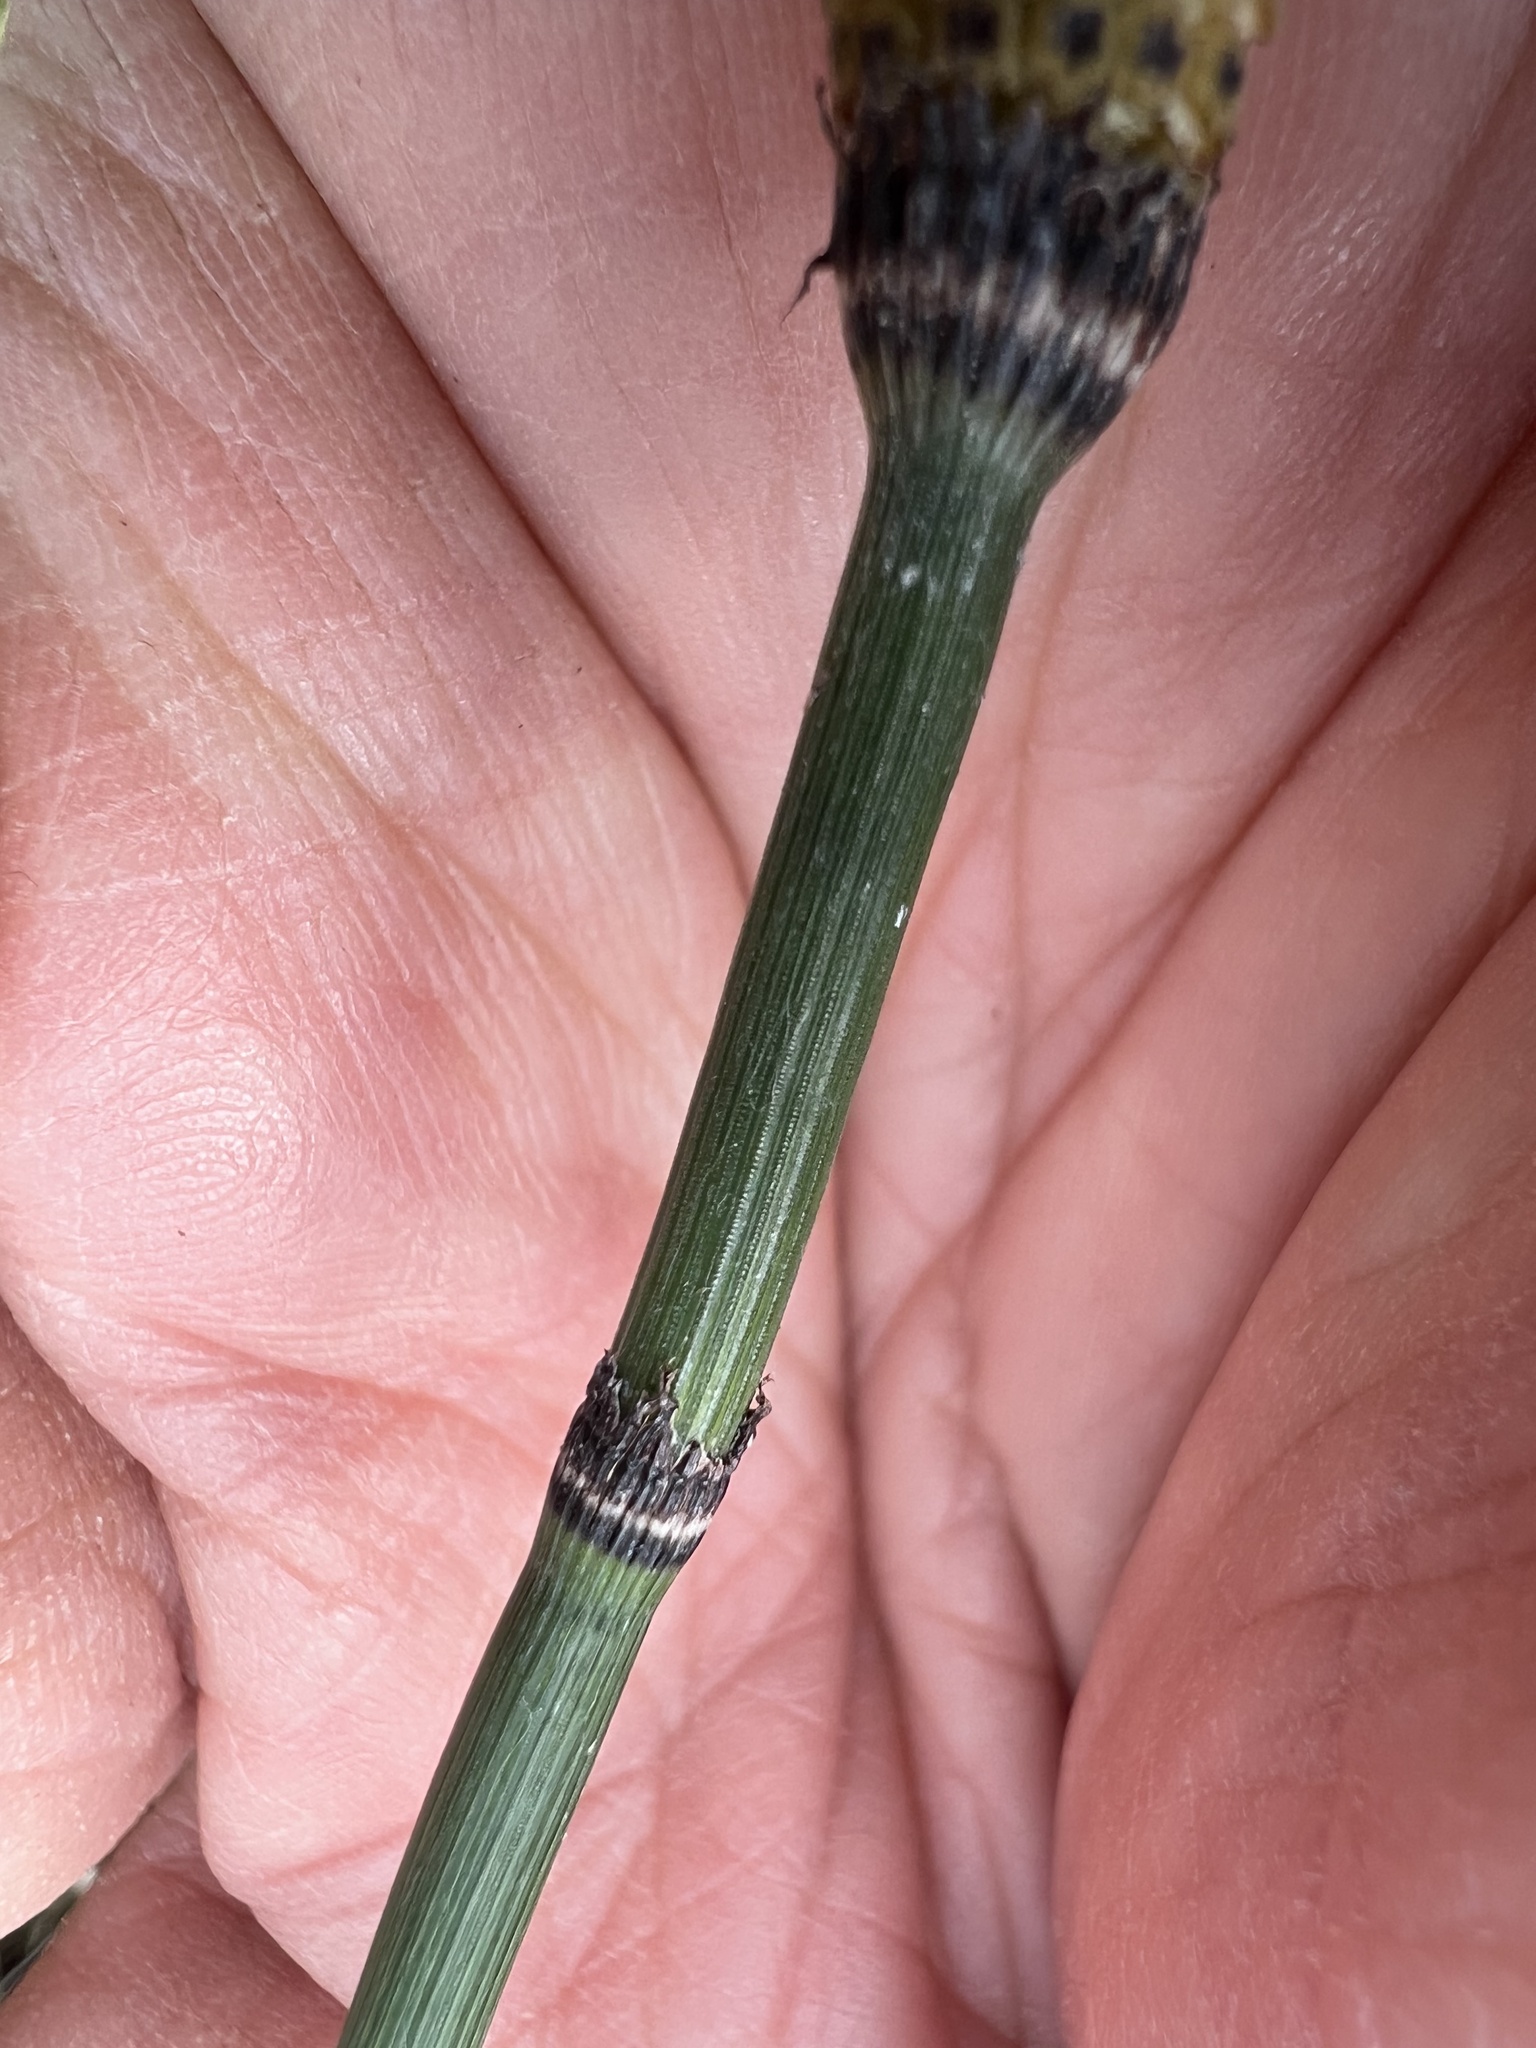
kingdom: Plantae
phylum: Tracheophyta
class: Polypodiopsida
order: Equisetales
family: Equisetaceae
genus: Equisetum
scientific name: Equisetum praealtum
